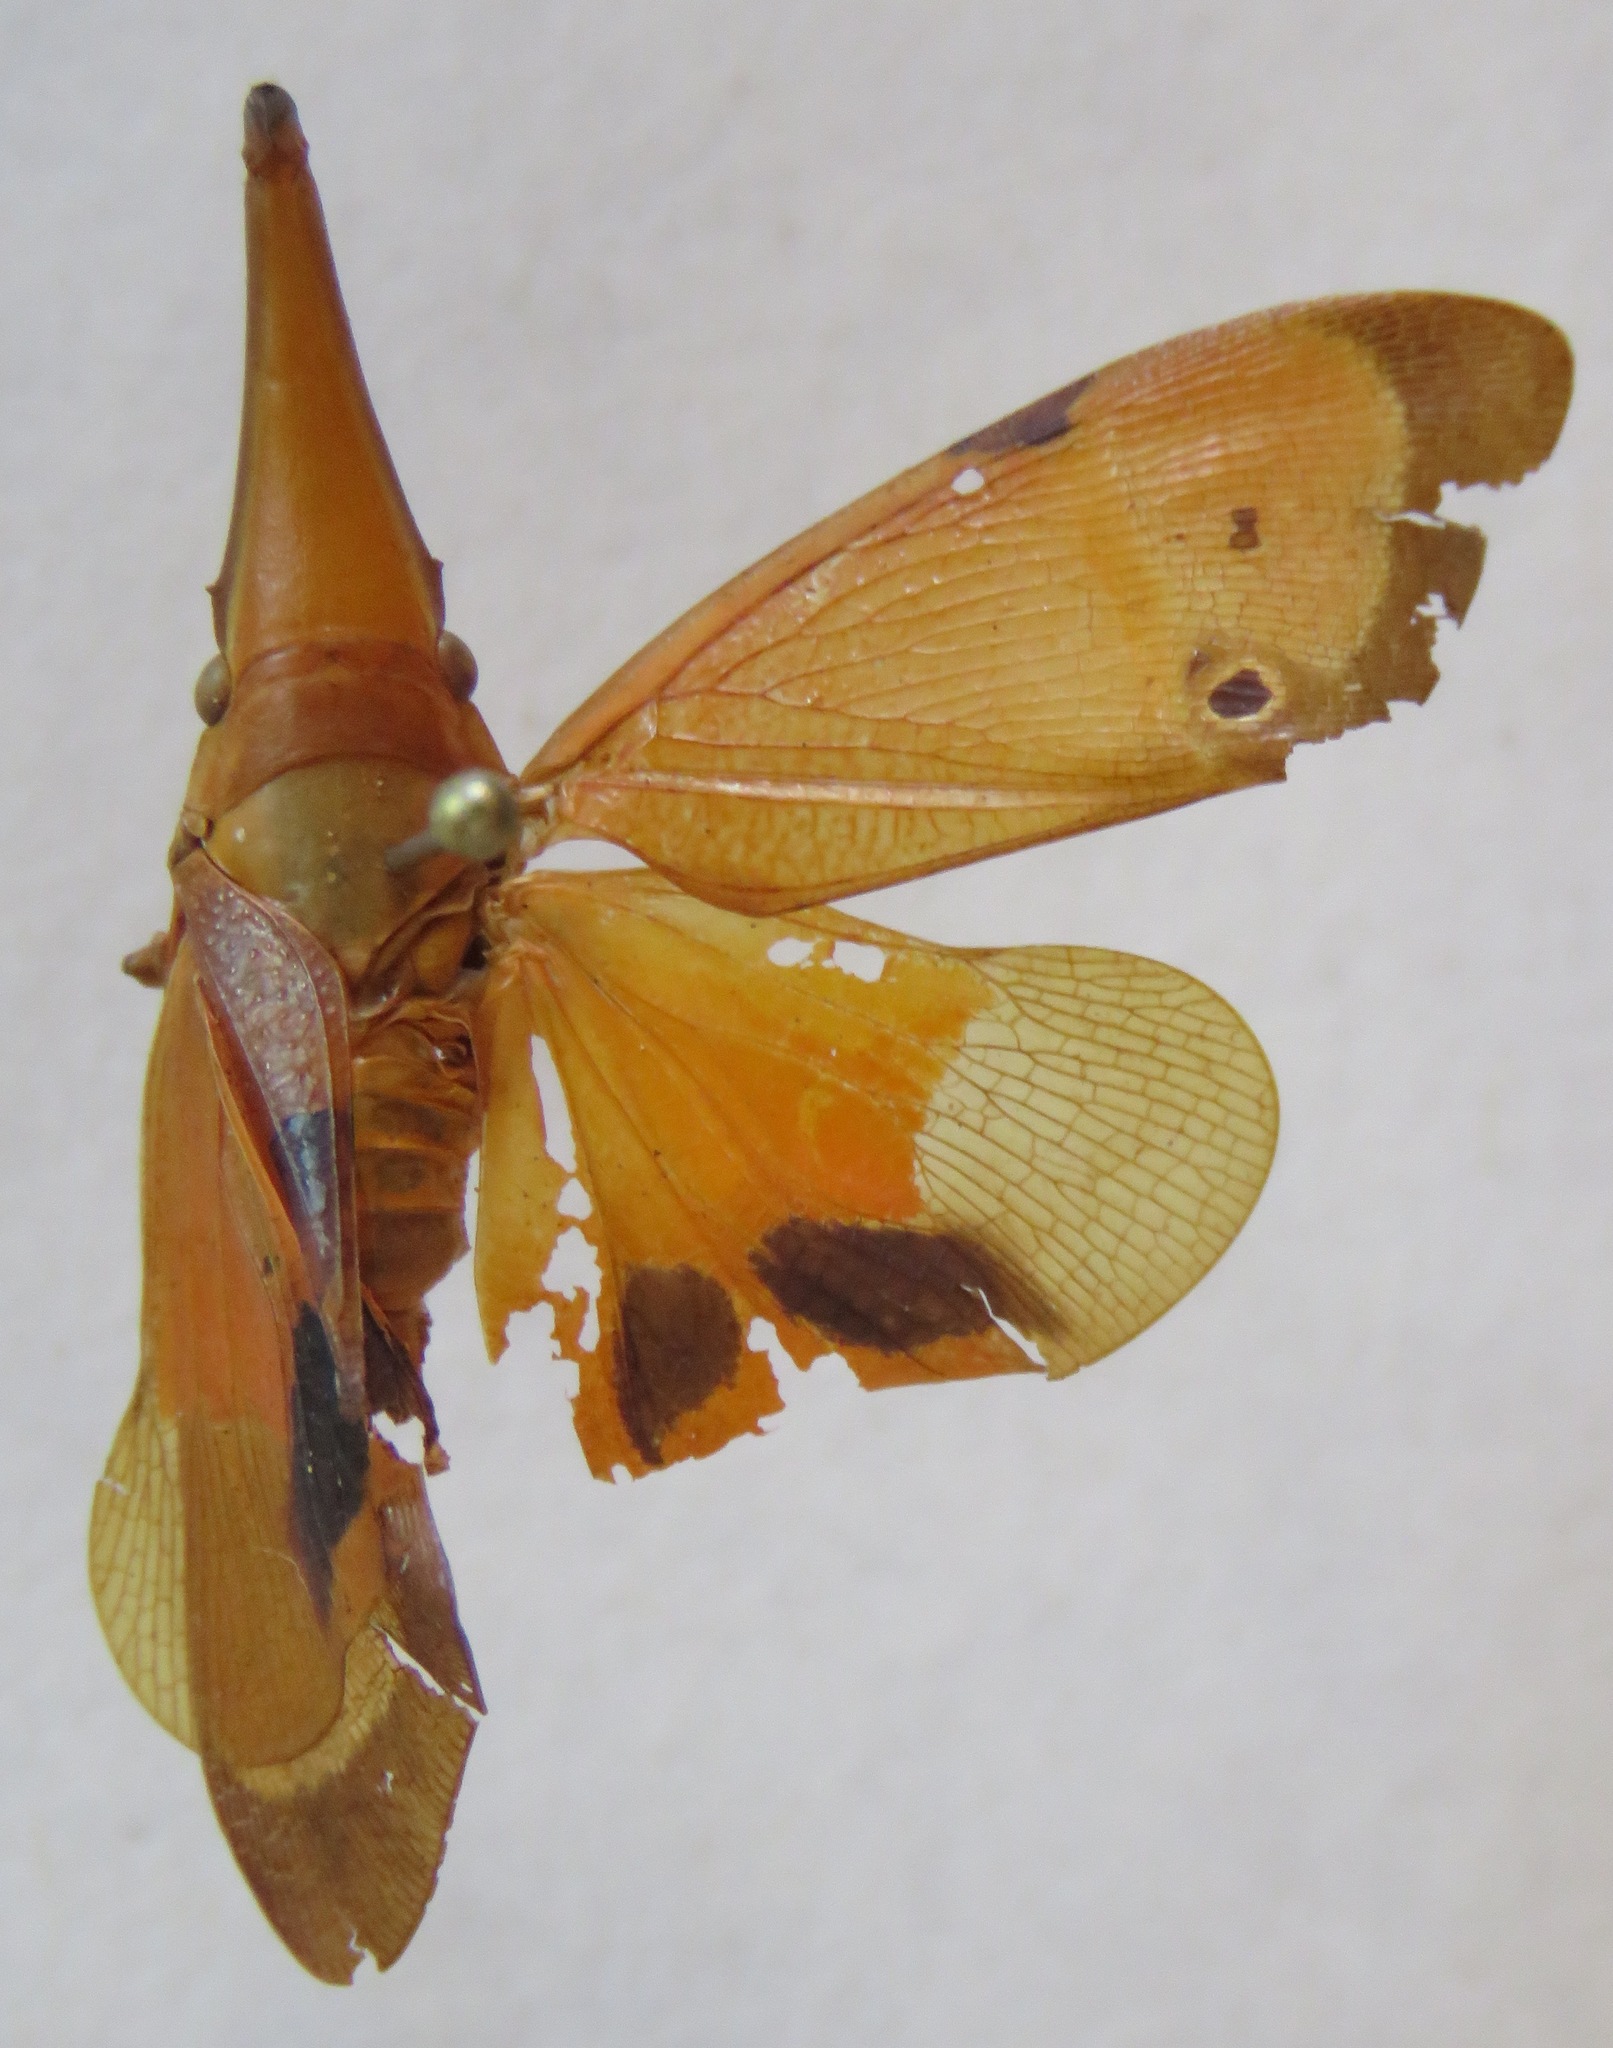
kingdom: Animalia
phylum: Arthropoda
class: Insecta
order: Hemiptera
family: Fulgoridae
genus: Odontoptera
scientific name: Odontoptera carrenoi
